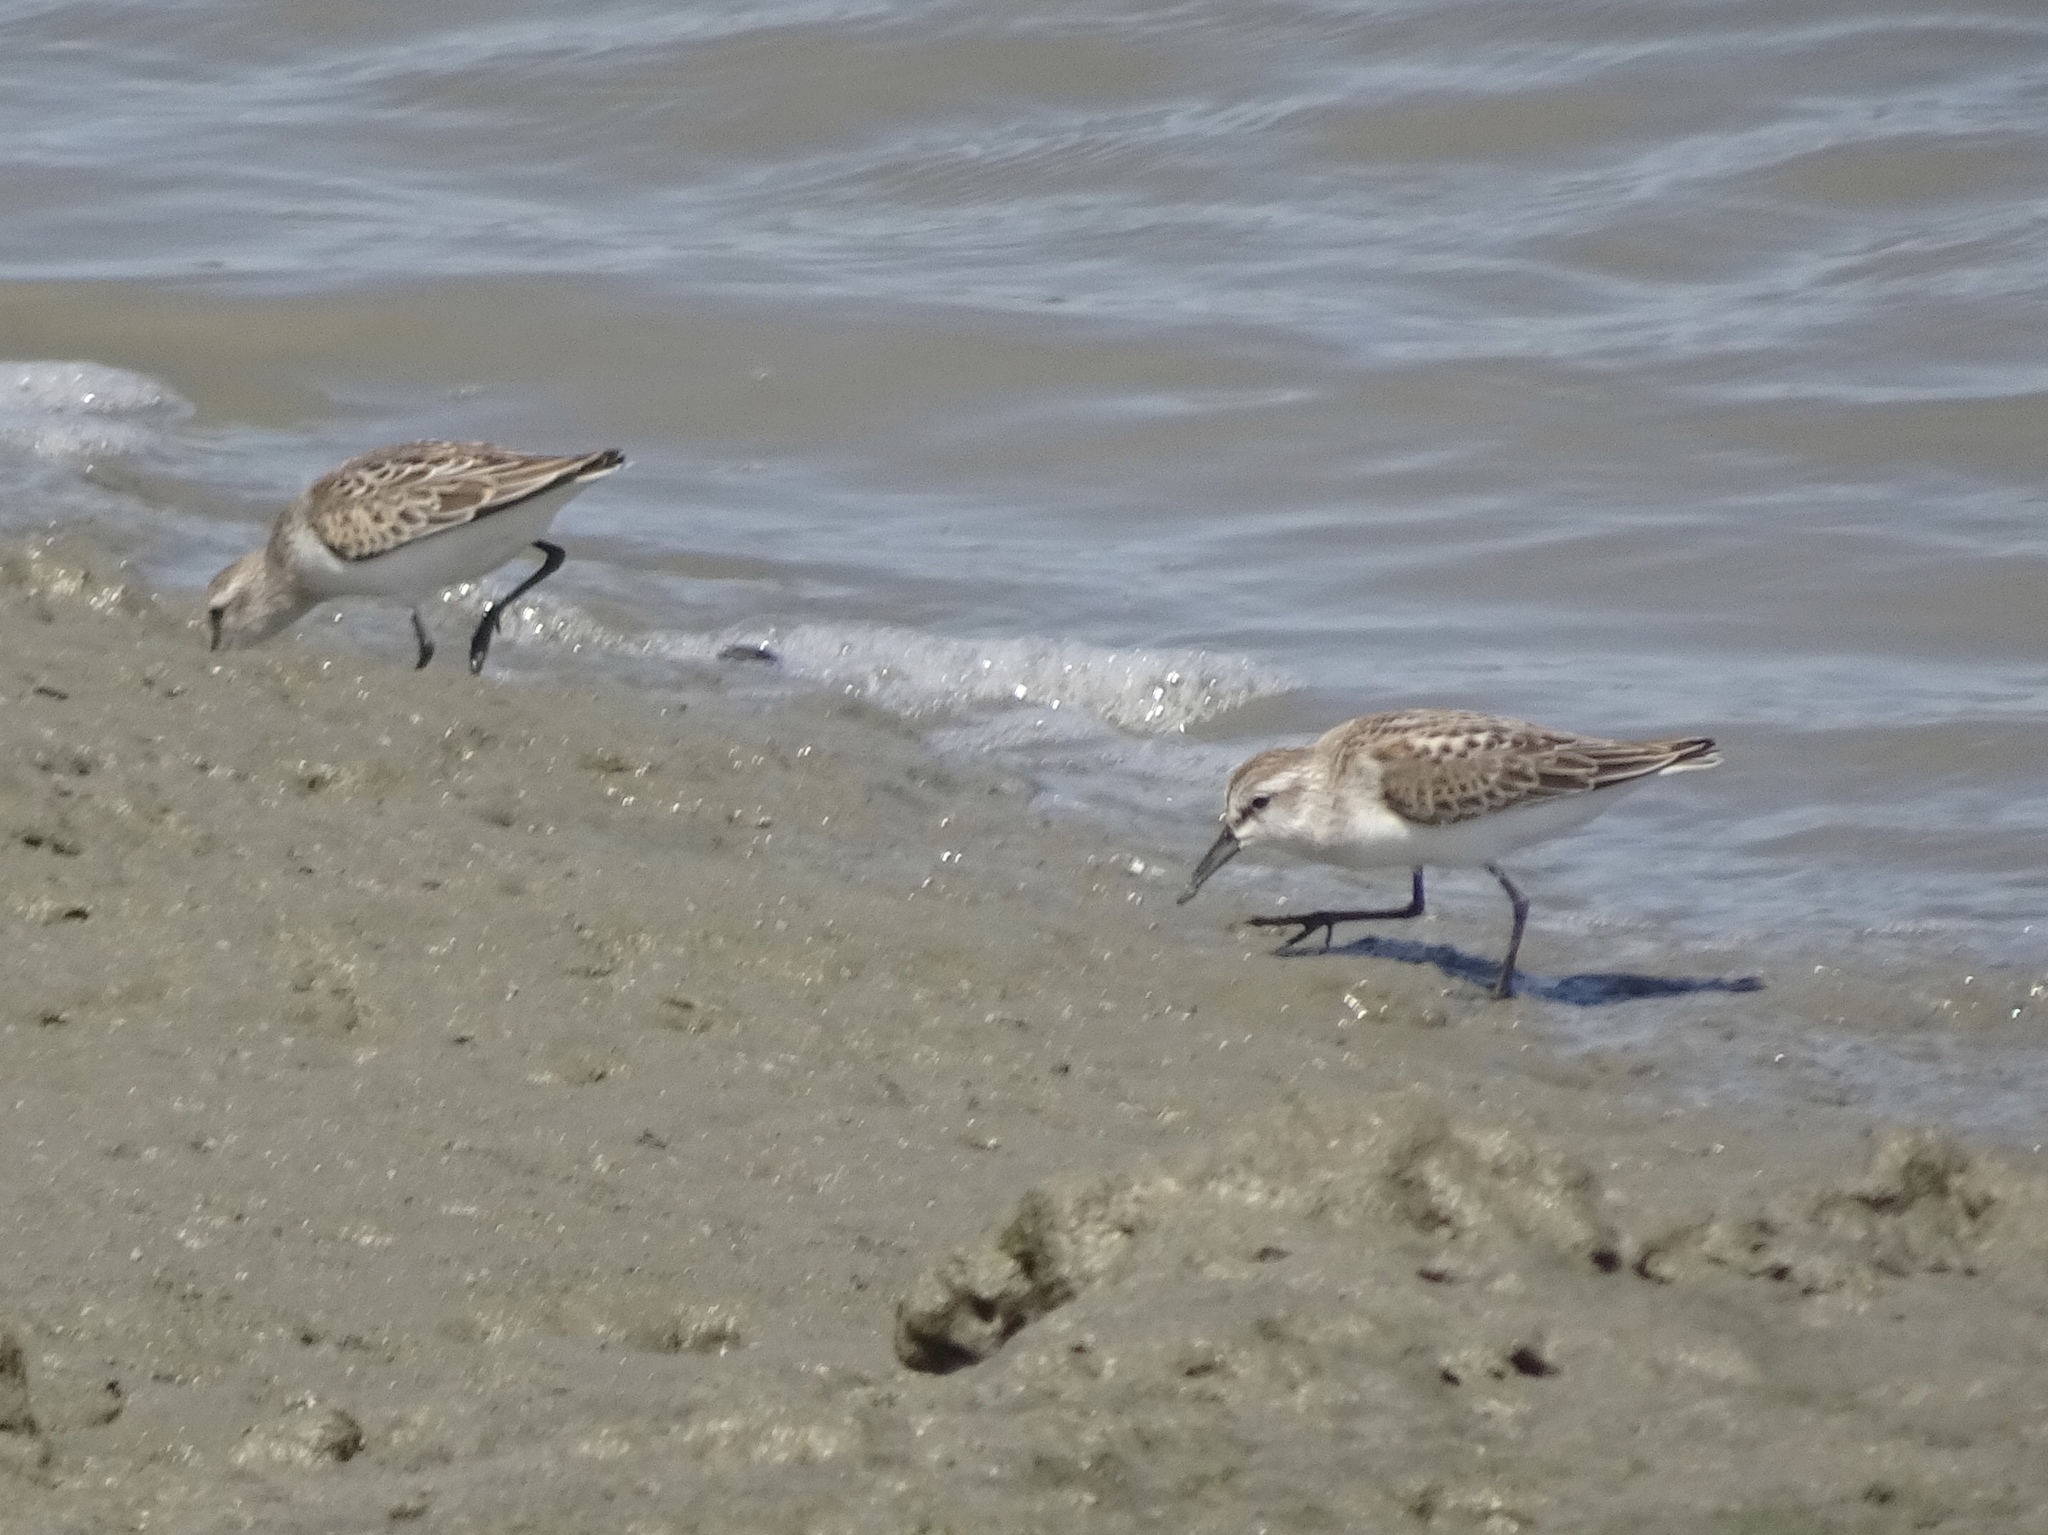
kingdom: Animalia
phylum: Chordata
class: Aves
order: Charadriiformes
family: Scolopacidae
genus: Calidris
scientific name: Calidris mauri
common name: Western sandpiper
